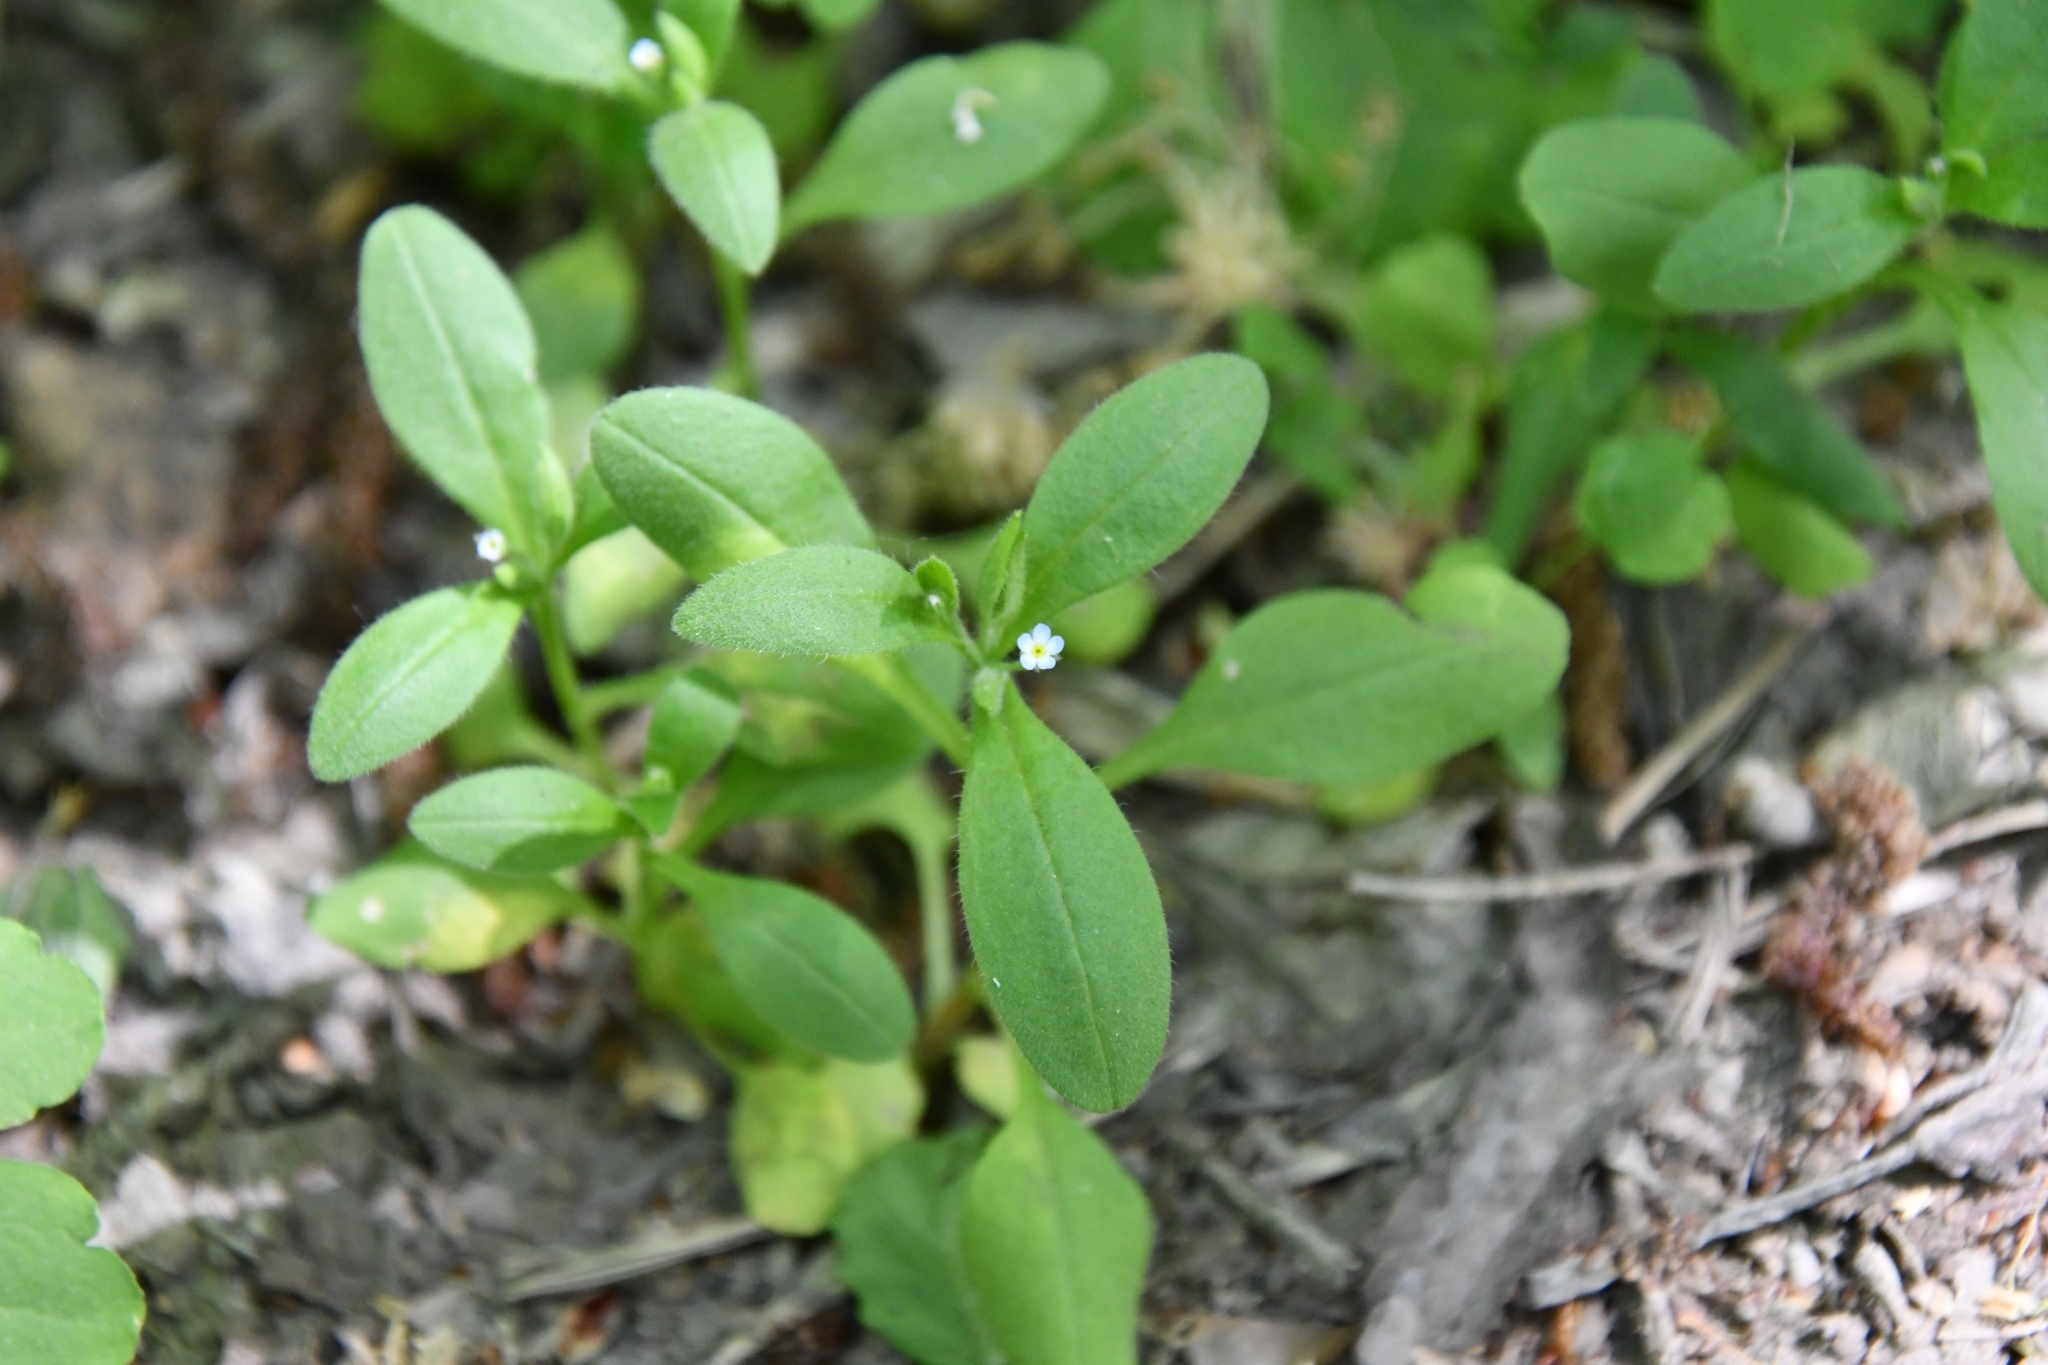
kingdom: Plantae
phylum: Tracheophyta
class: Magnoliopsida
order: Boraginales
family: Boraginaceae
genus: Myosotis
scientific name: Myosotis sparsiflora
